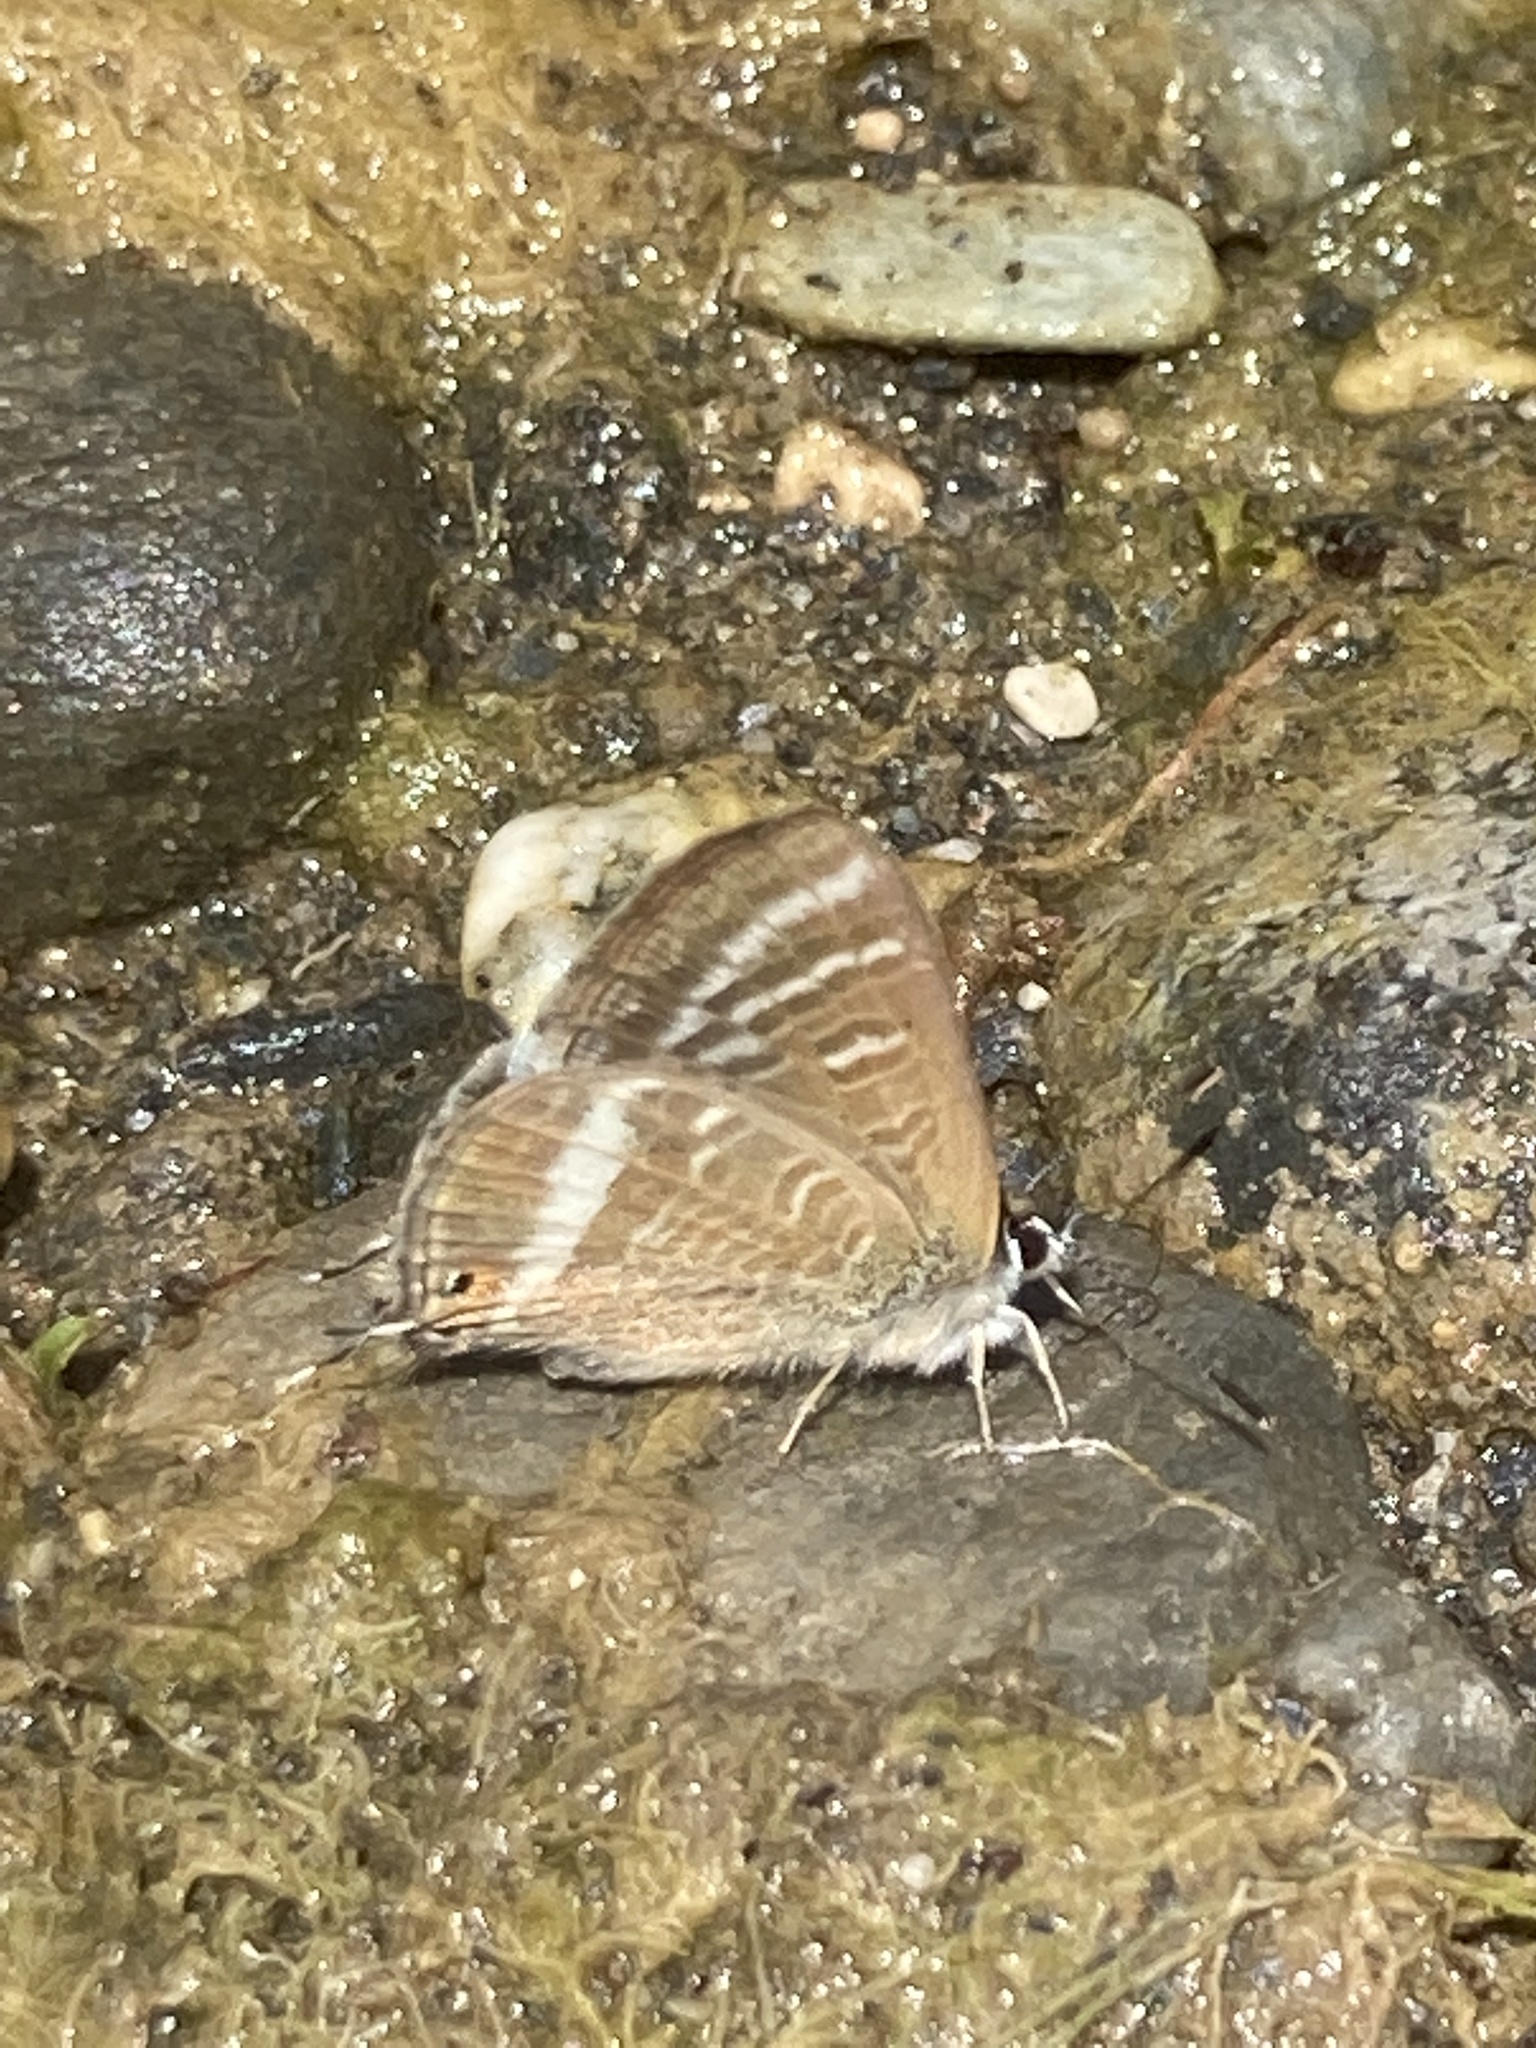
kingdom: Animalia
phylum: Arthropoda
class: Insecta
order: Lepidoptera
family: Lycaenidae
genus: Lampides
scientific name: Lampides boeticus
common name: Long-tailed blue
